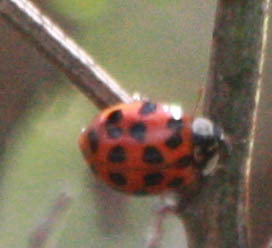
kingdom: Animalia
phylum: Arthropoda
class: Insecta
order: Coleoptera
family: Coccinellidae
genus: Harmonia
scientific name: Harmonia axyridis
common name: Harlequin ladybird
